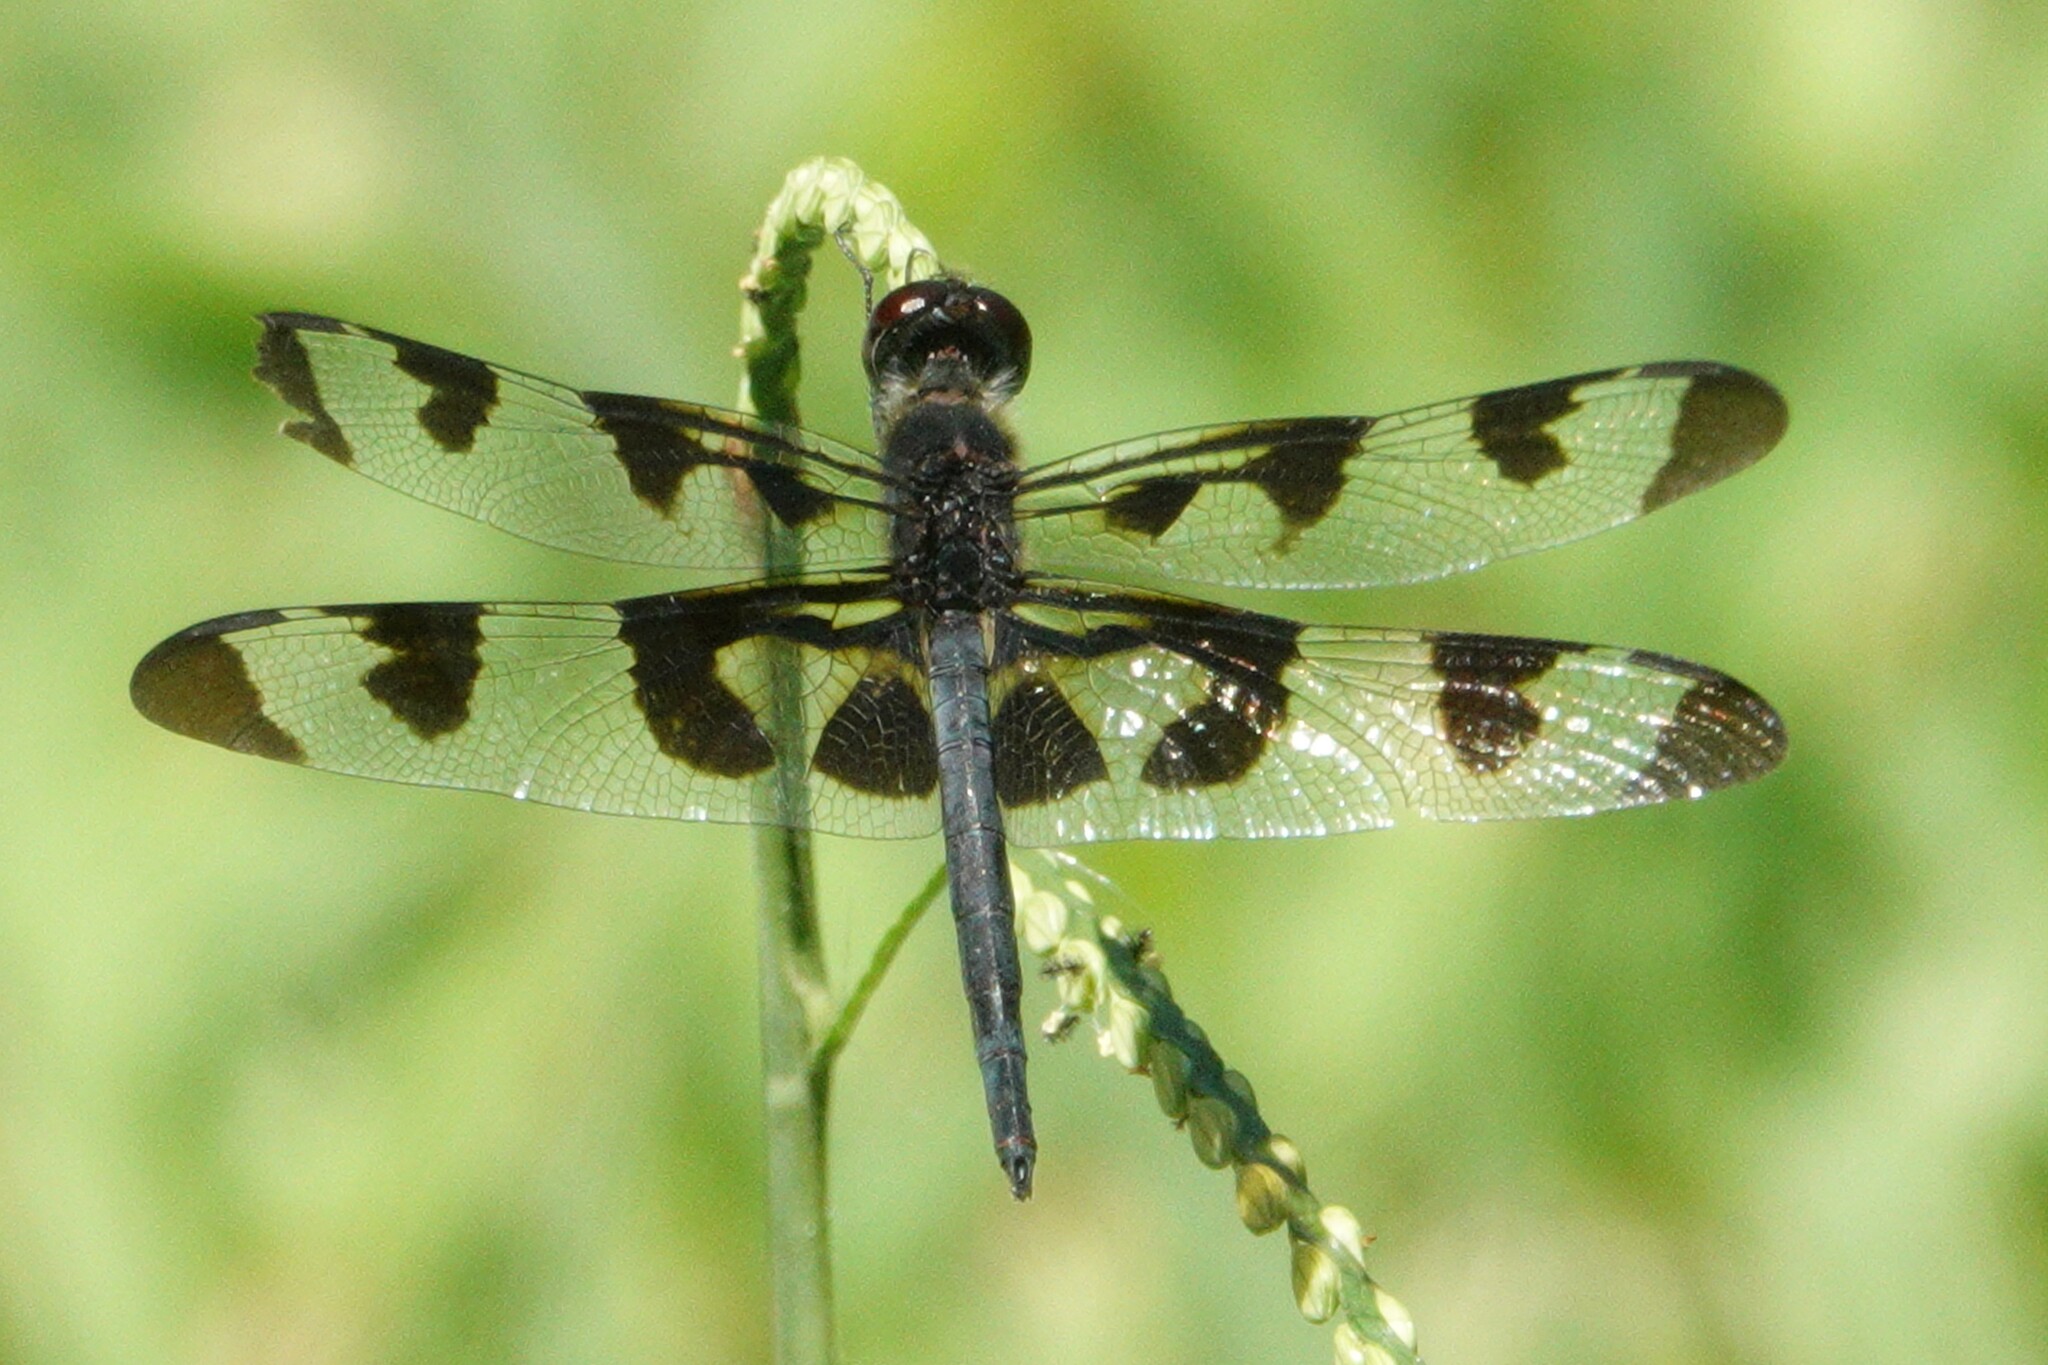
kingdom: Animalia
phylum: Arthropoda
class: Insecta
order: Odonata
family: Libellulidae
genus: Celithemis
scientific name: Celithemis fasciata
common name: Banded pennant
